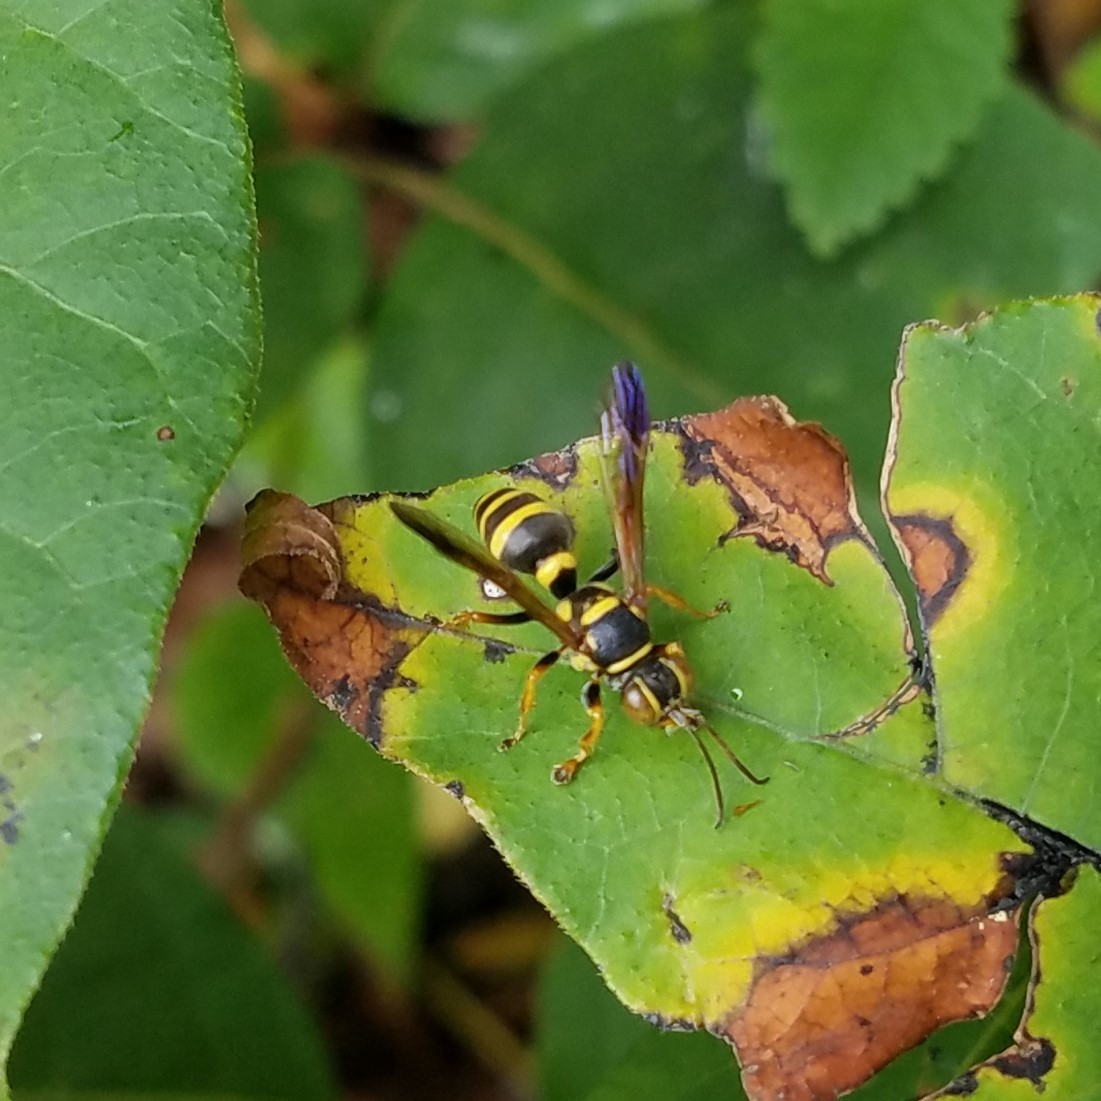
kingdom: Animalia
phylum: Arthropoda
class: Insecta
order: Hymenoptera
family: Crabronidae
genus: Psammaletes
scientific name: Psammaletes mexicanus
